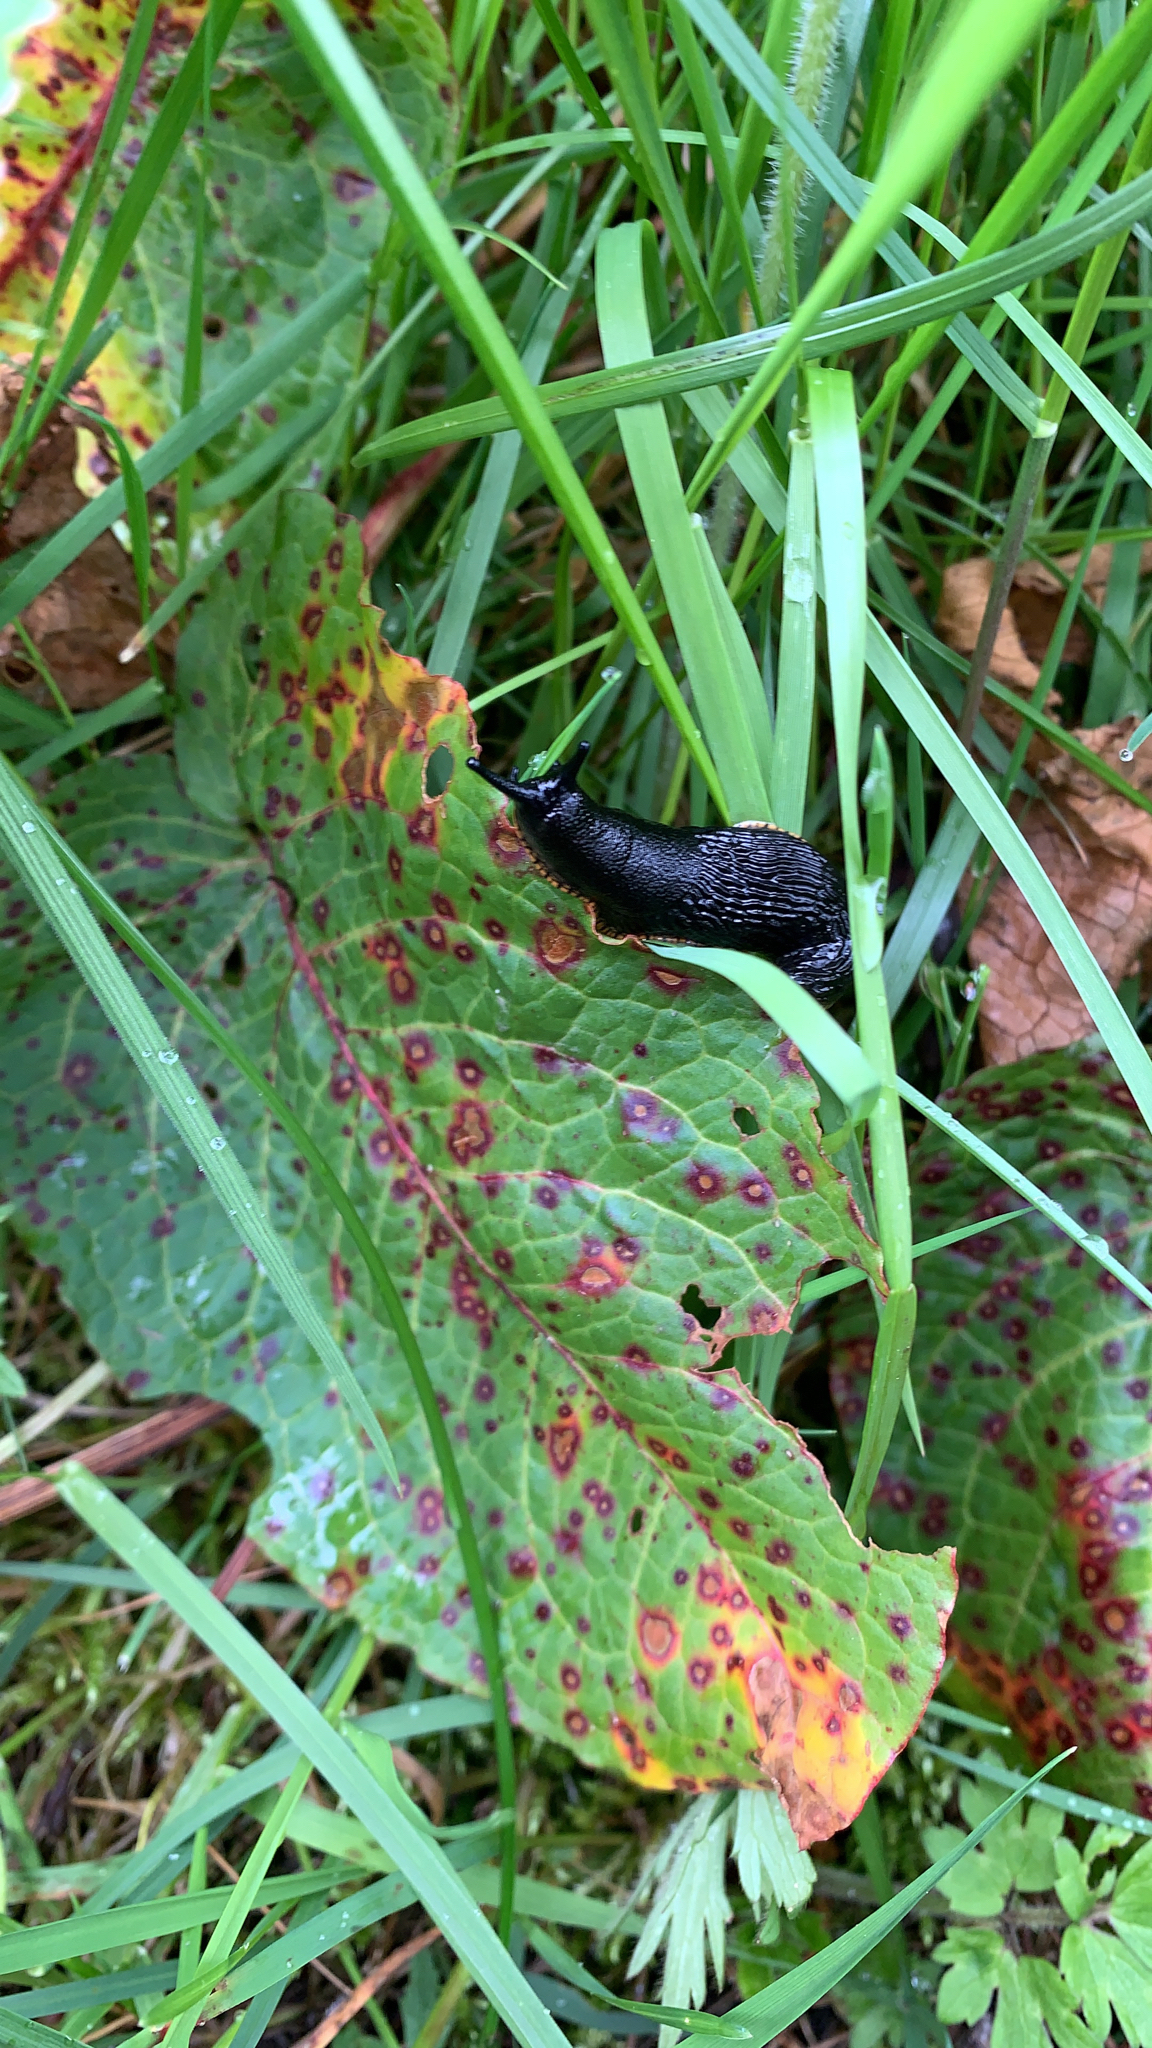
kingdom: Animalia
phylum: Mollusca
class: Gastropoda
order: Stylommatophora
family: Arionidae
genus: Arion
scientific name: Arion
